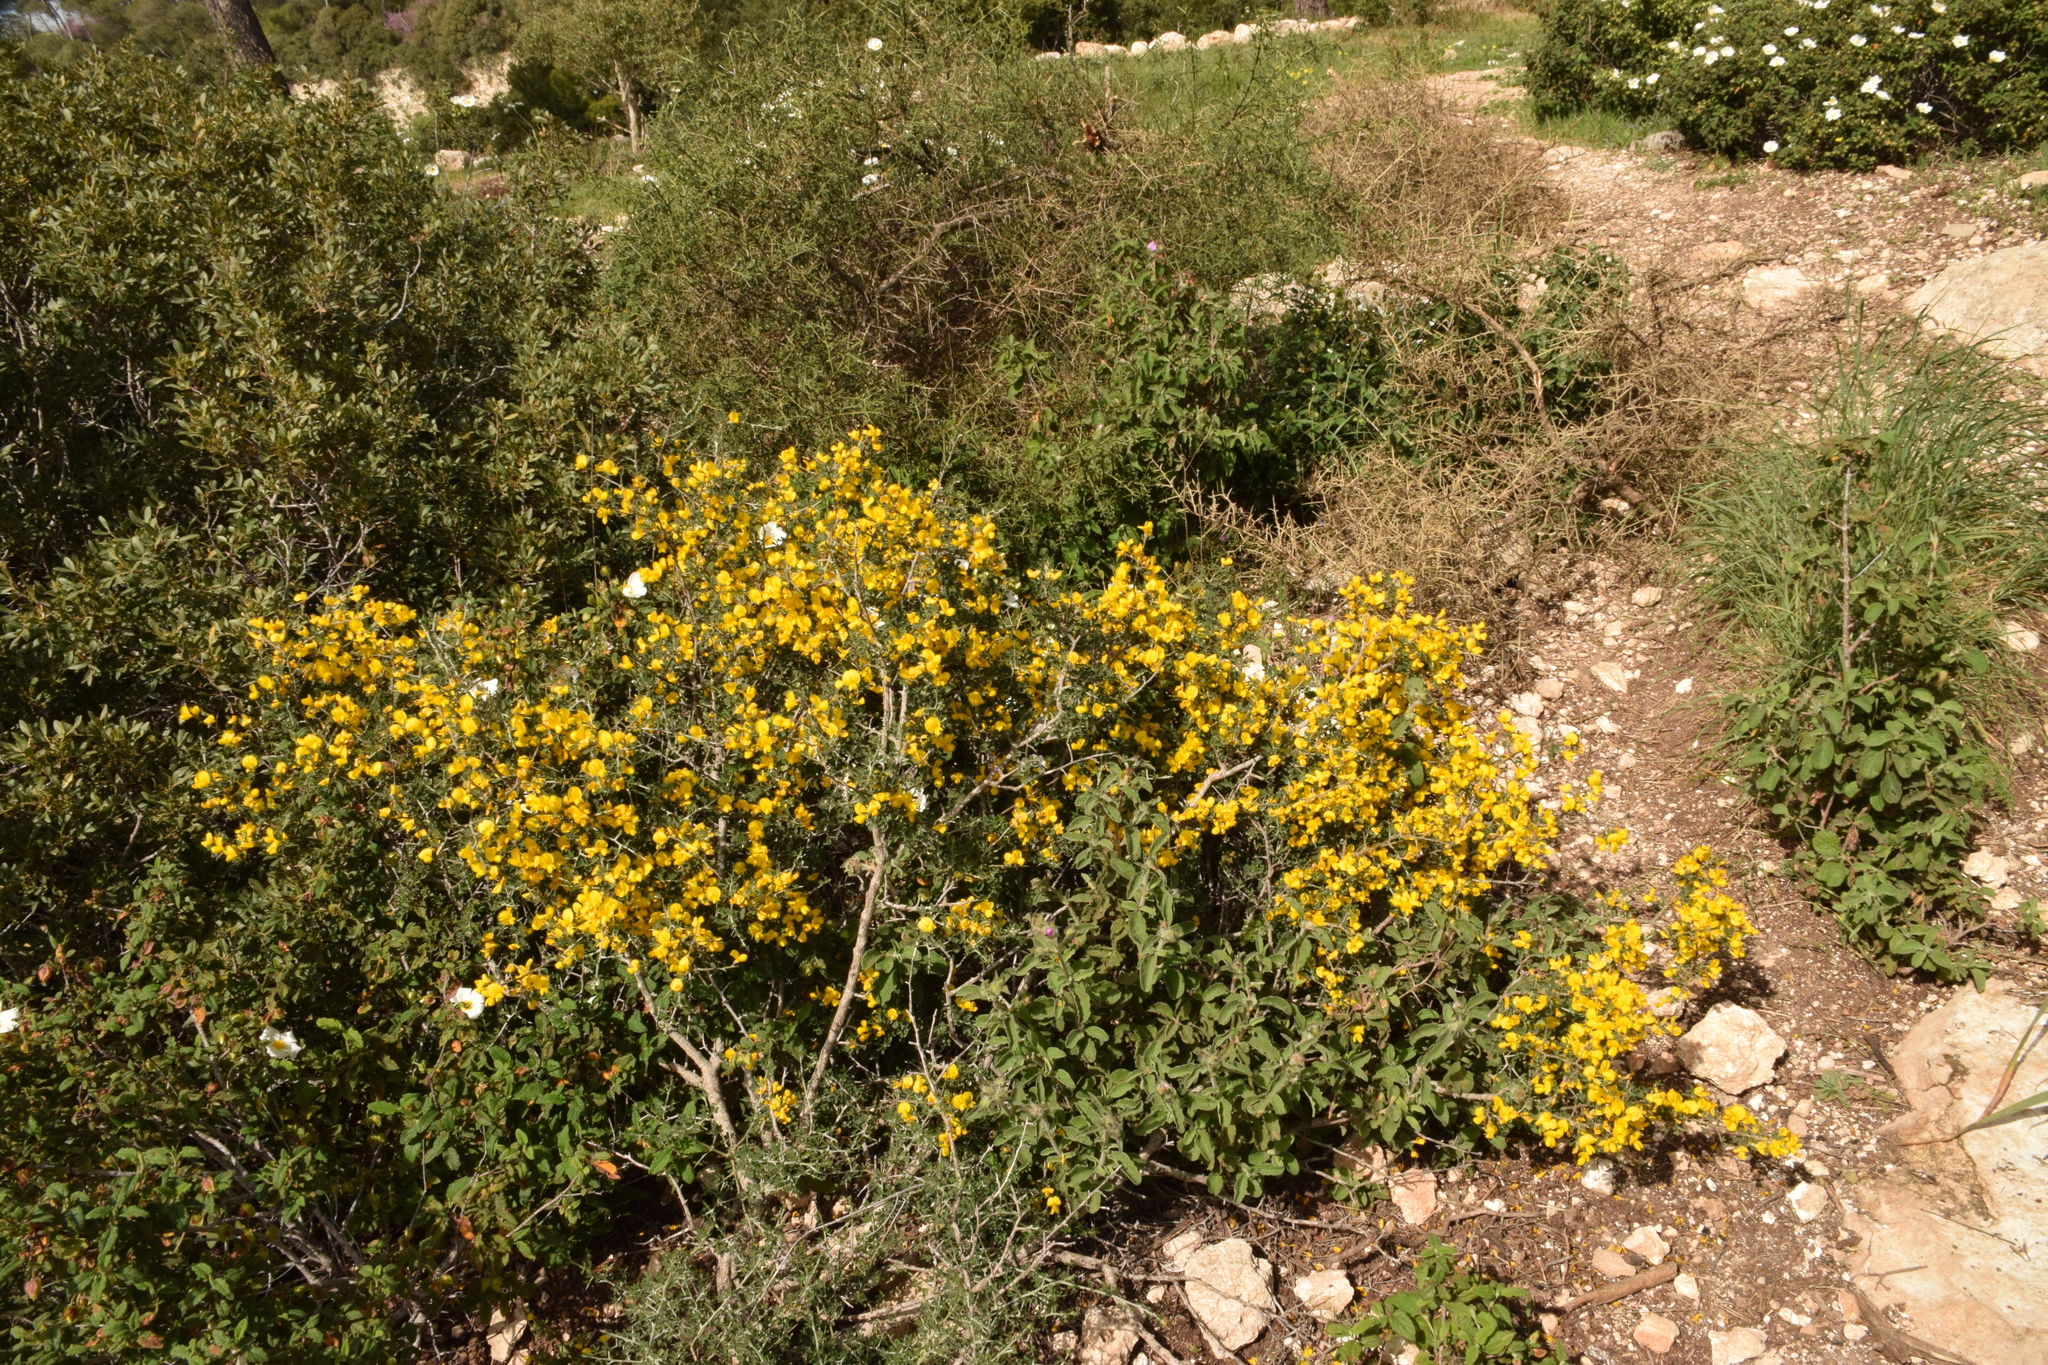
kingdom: Plantae
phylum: Tracheophyta
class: Magnoliopsida
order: Fabales
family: Fabaceae
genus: Calicotome
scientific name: Calicotome villosa
